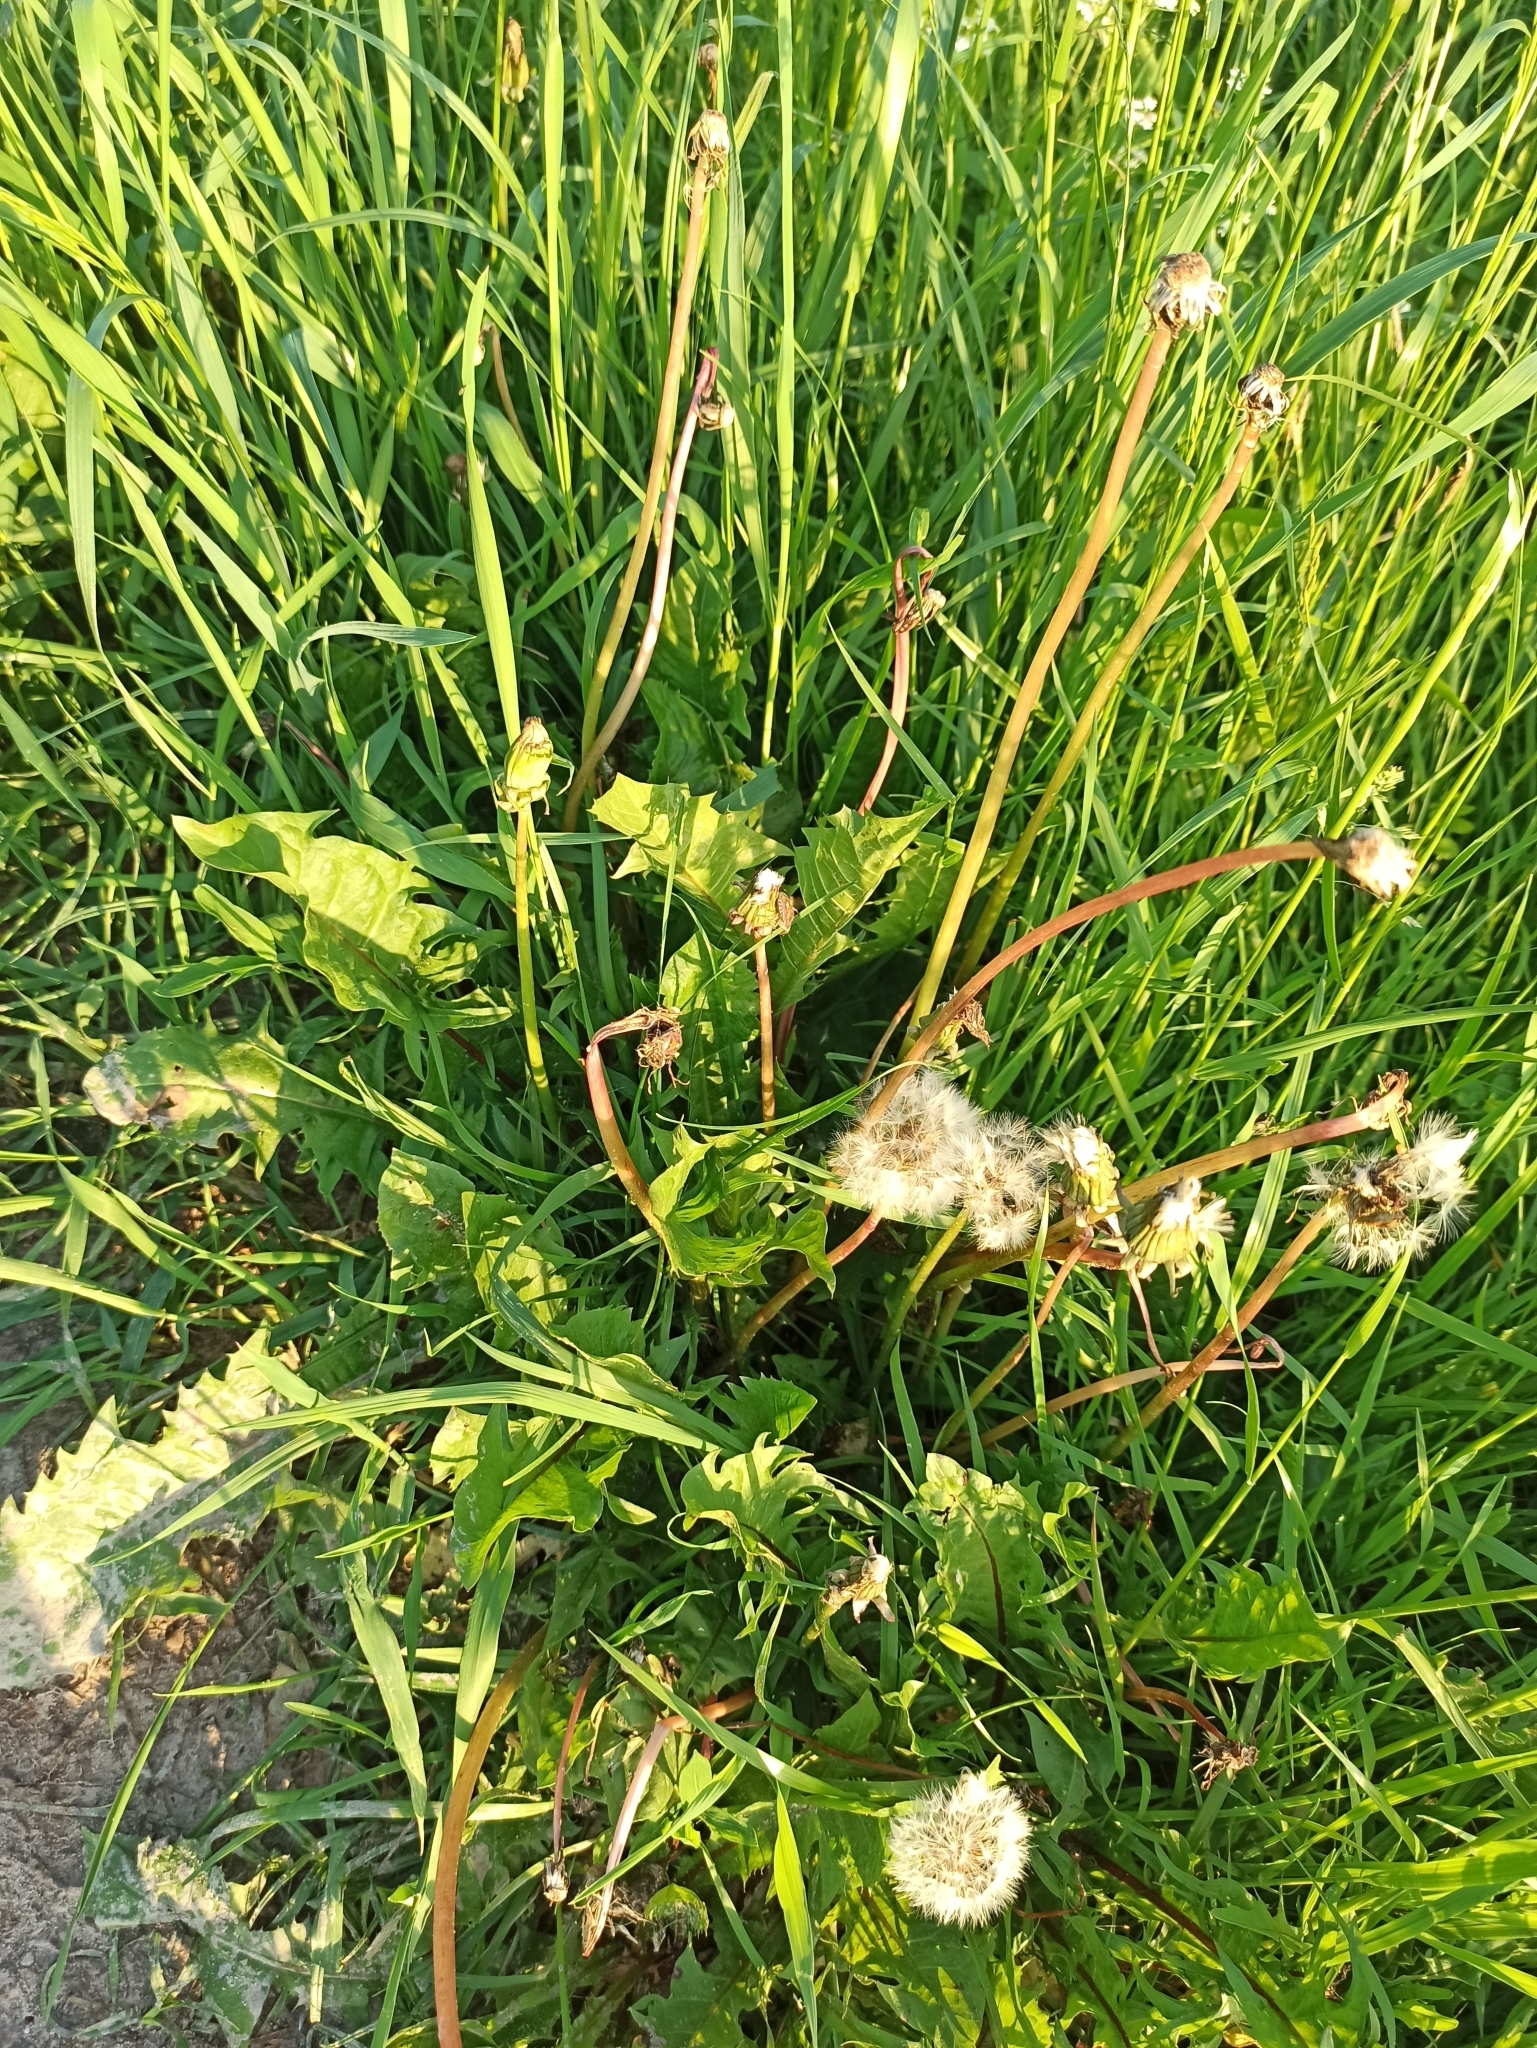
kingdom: Plantae
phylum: Tracheophyta
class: Magnoliopsida
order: Asterales
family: Asteraceae
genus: Taraxacum
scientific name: Taraxacum officinale
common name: Common dandelion
